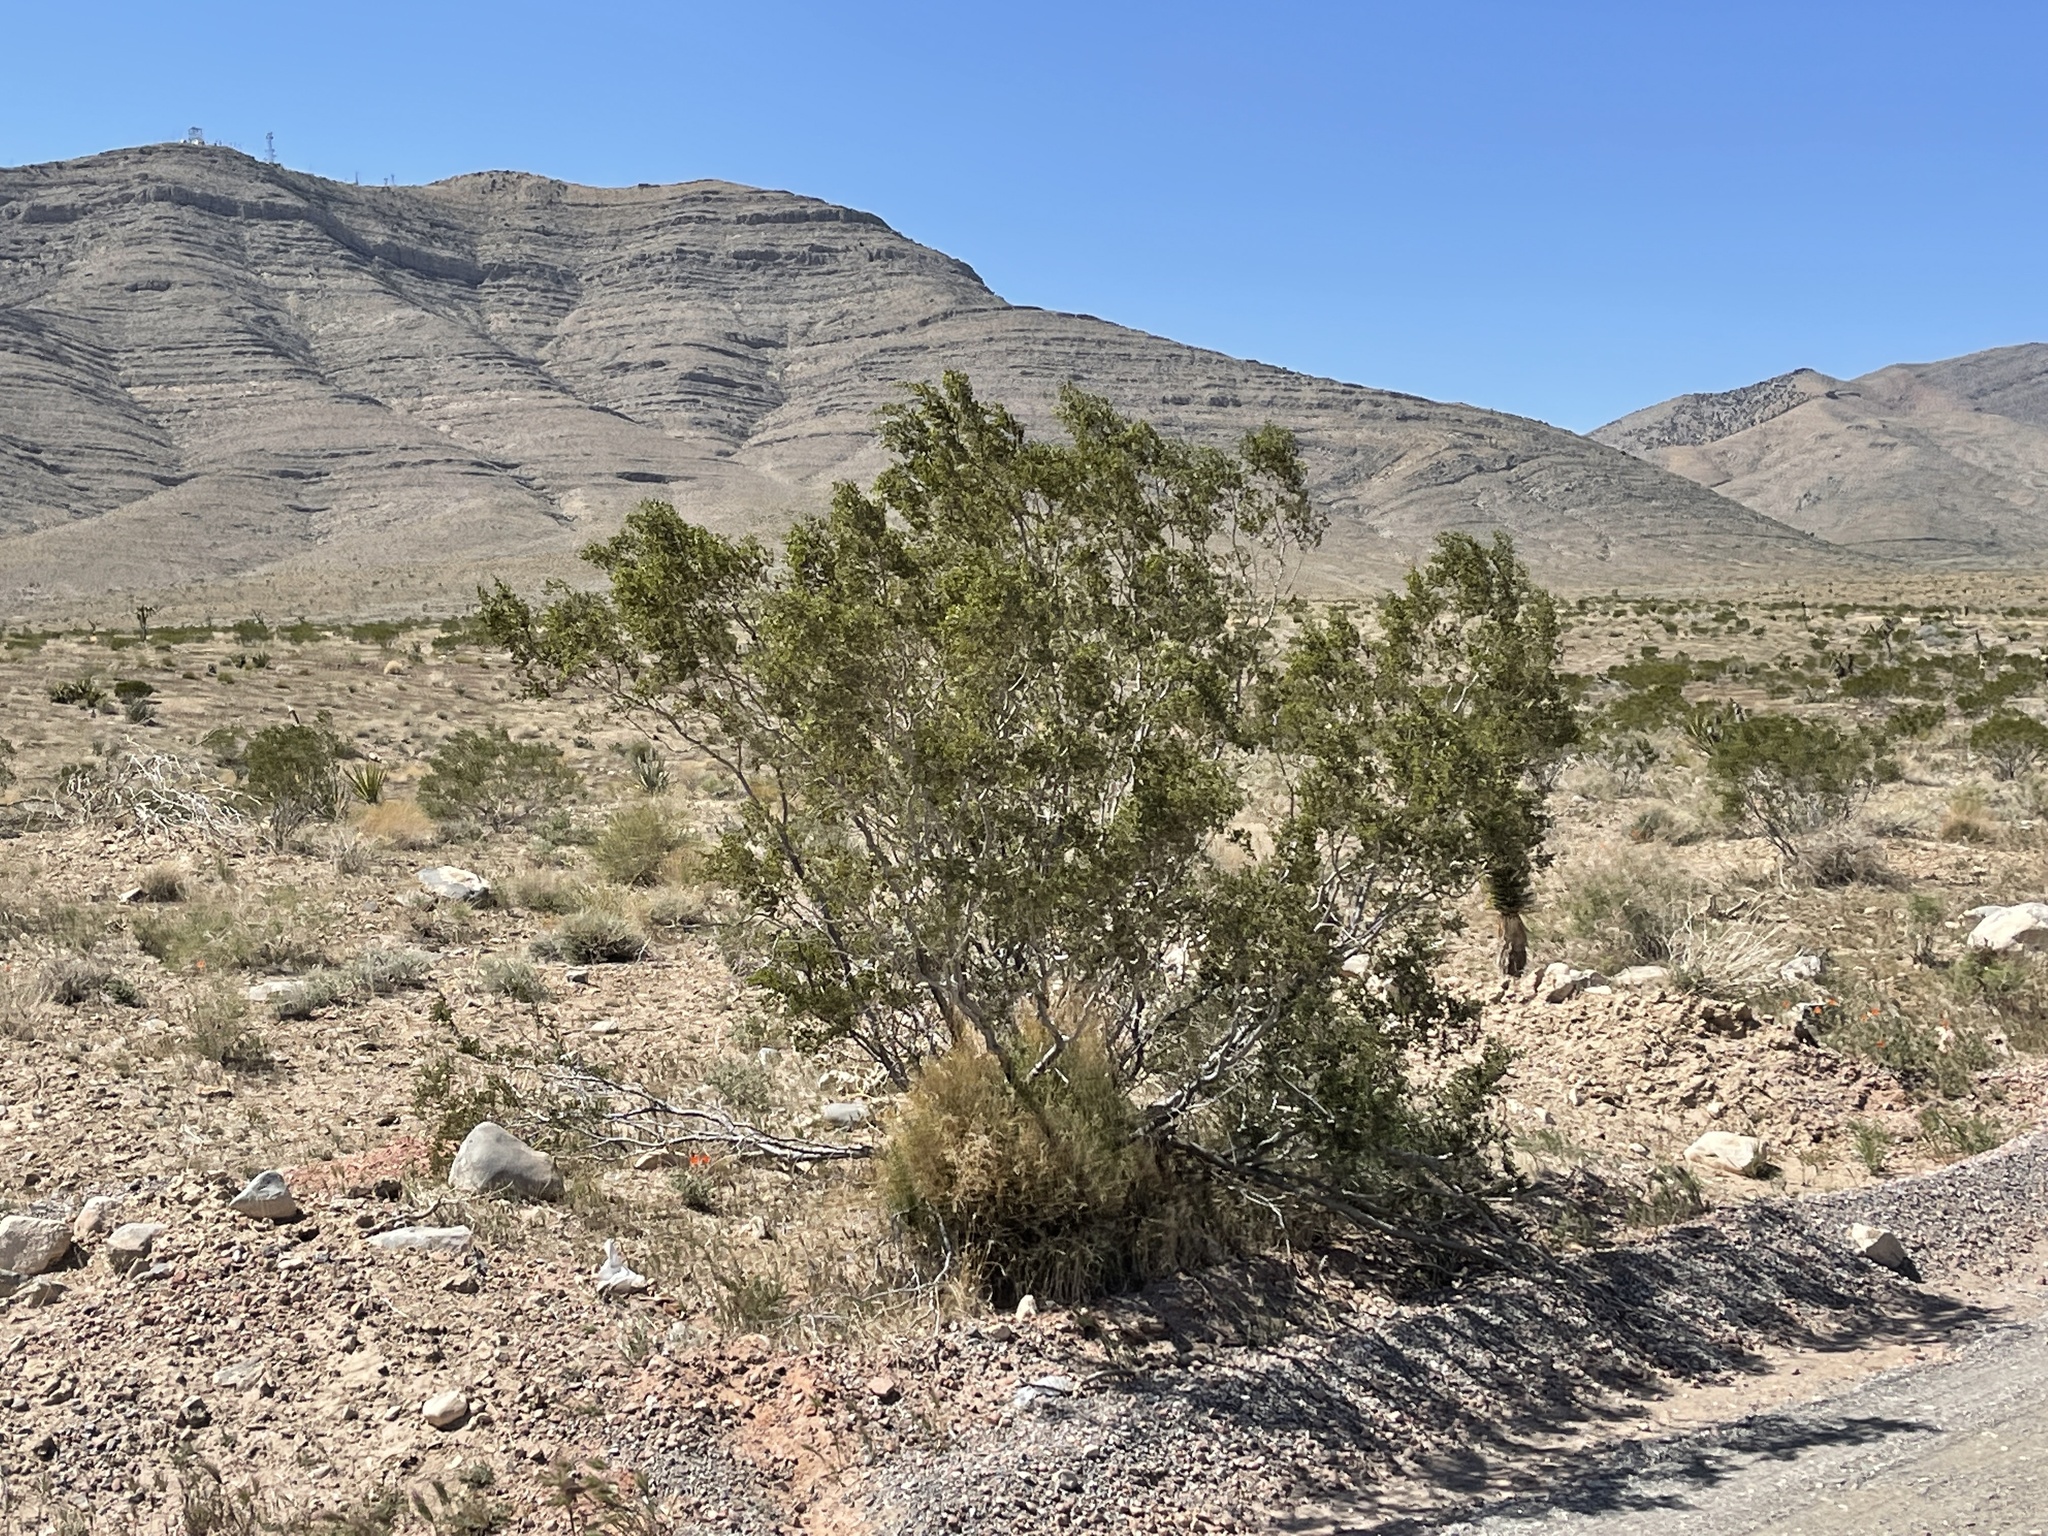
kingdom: Plantae
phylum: Tracheophyta
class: Magnoliopsida
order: Zygophyllales
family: Zygophyllaceae
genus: Larrea
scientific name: Larrea tridentata
